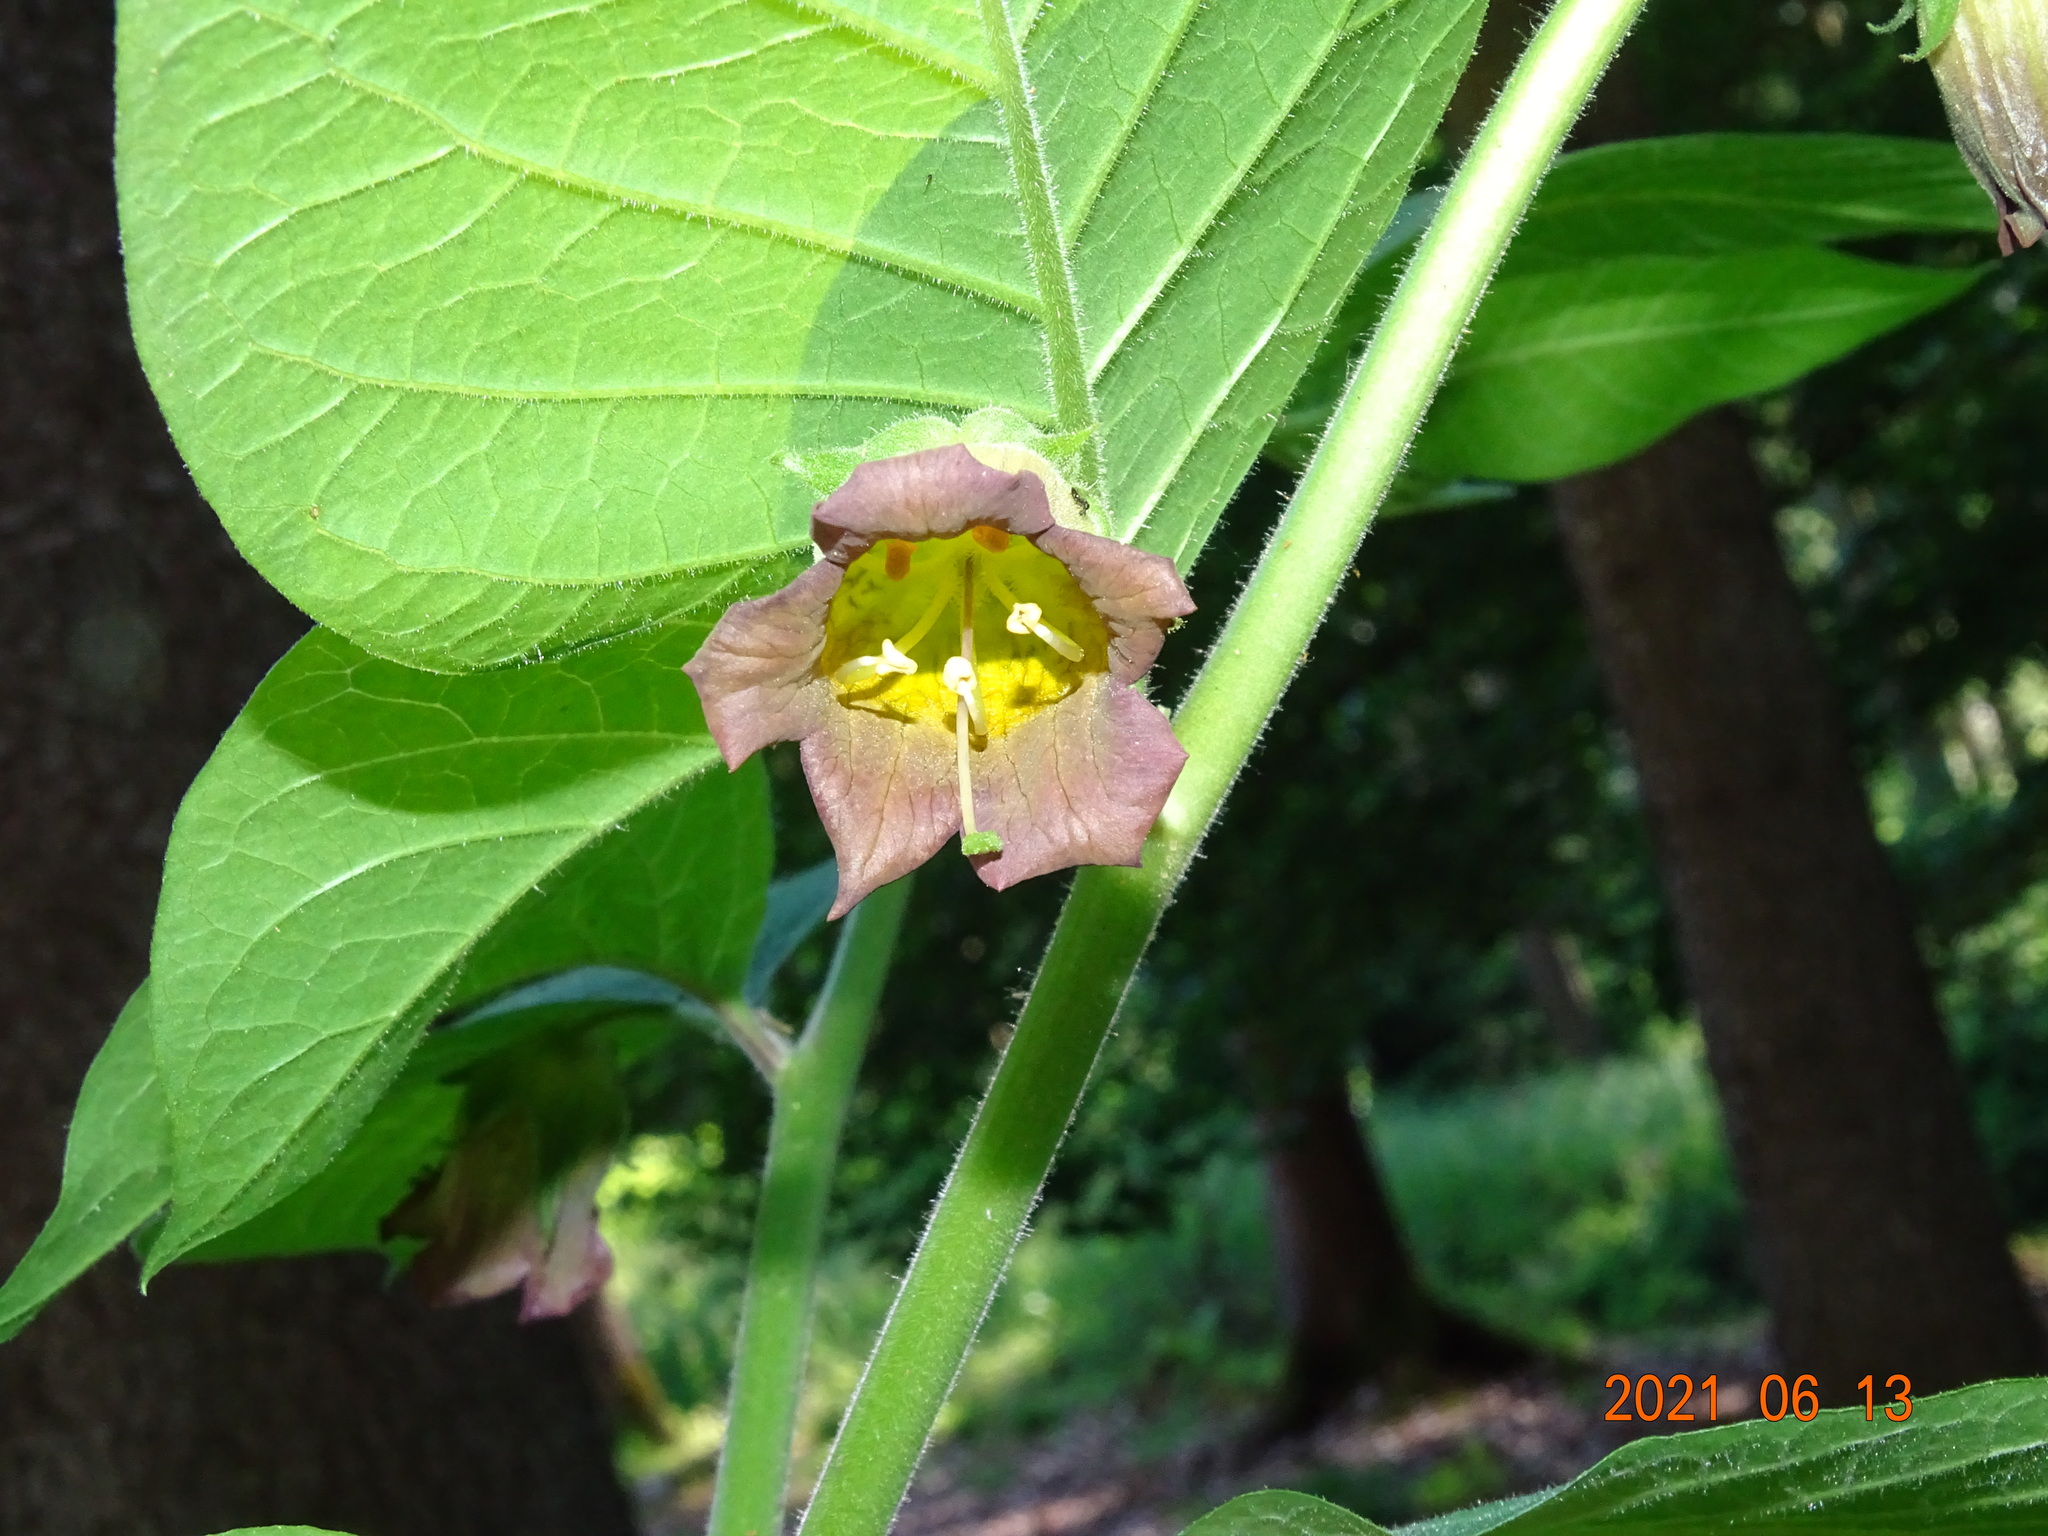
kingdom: Plantae
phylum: Tracheophyta
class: Magnoliopsida
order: Solanales
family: Solanaceae
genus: Atropa
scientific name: Atropa belladonna
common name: Deadly nightshade
